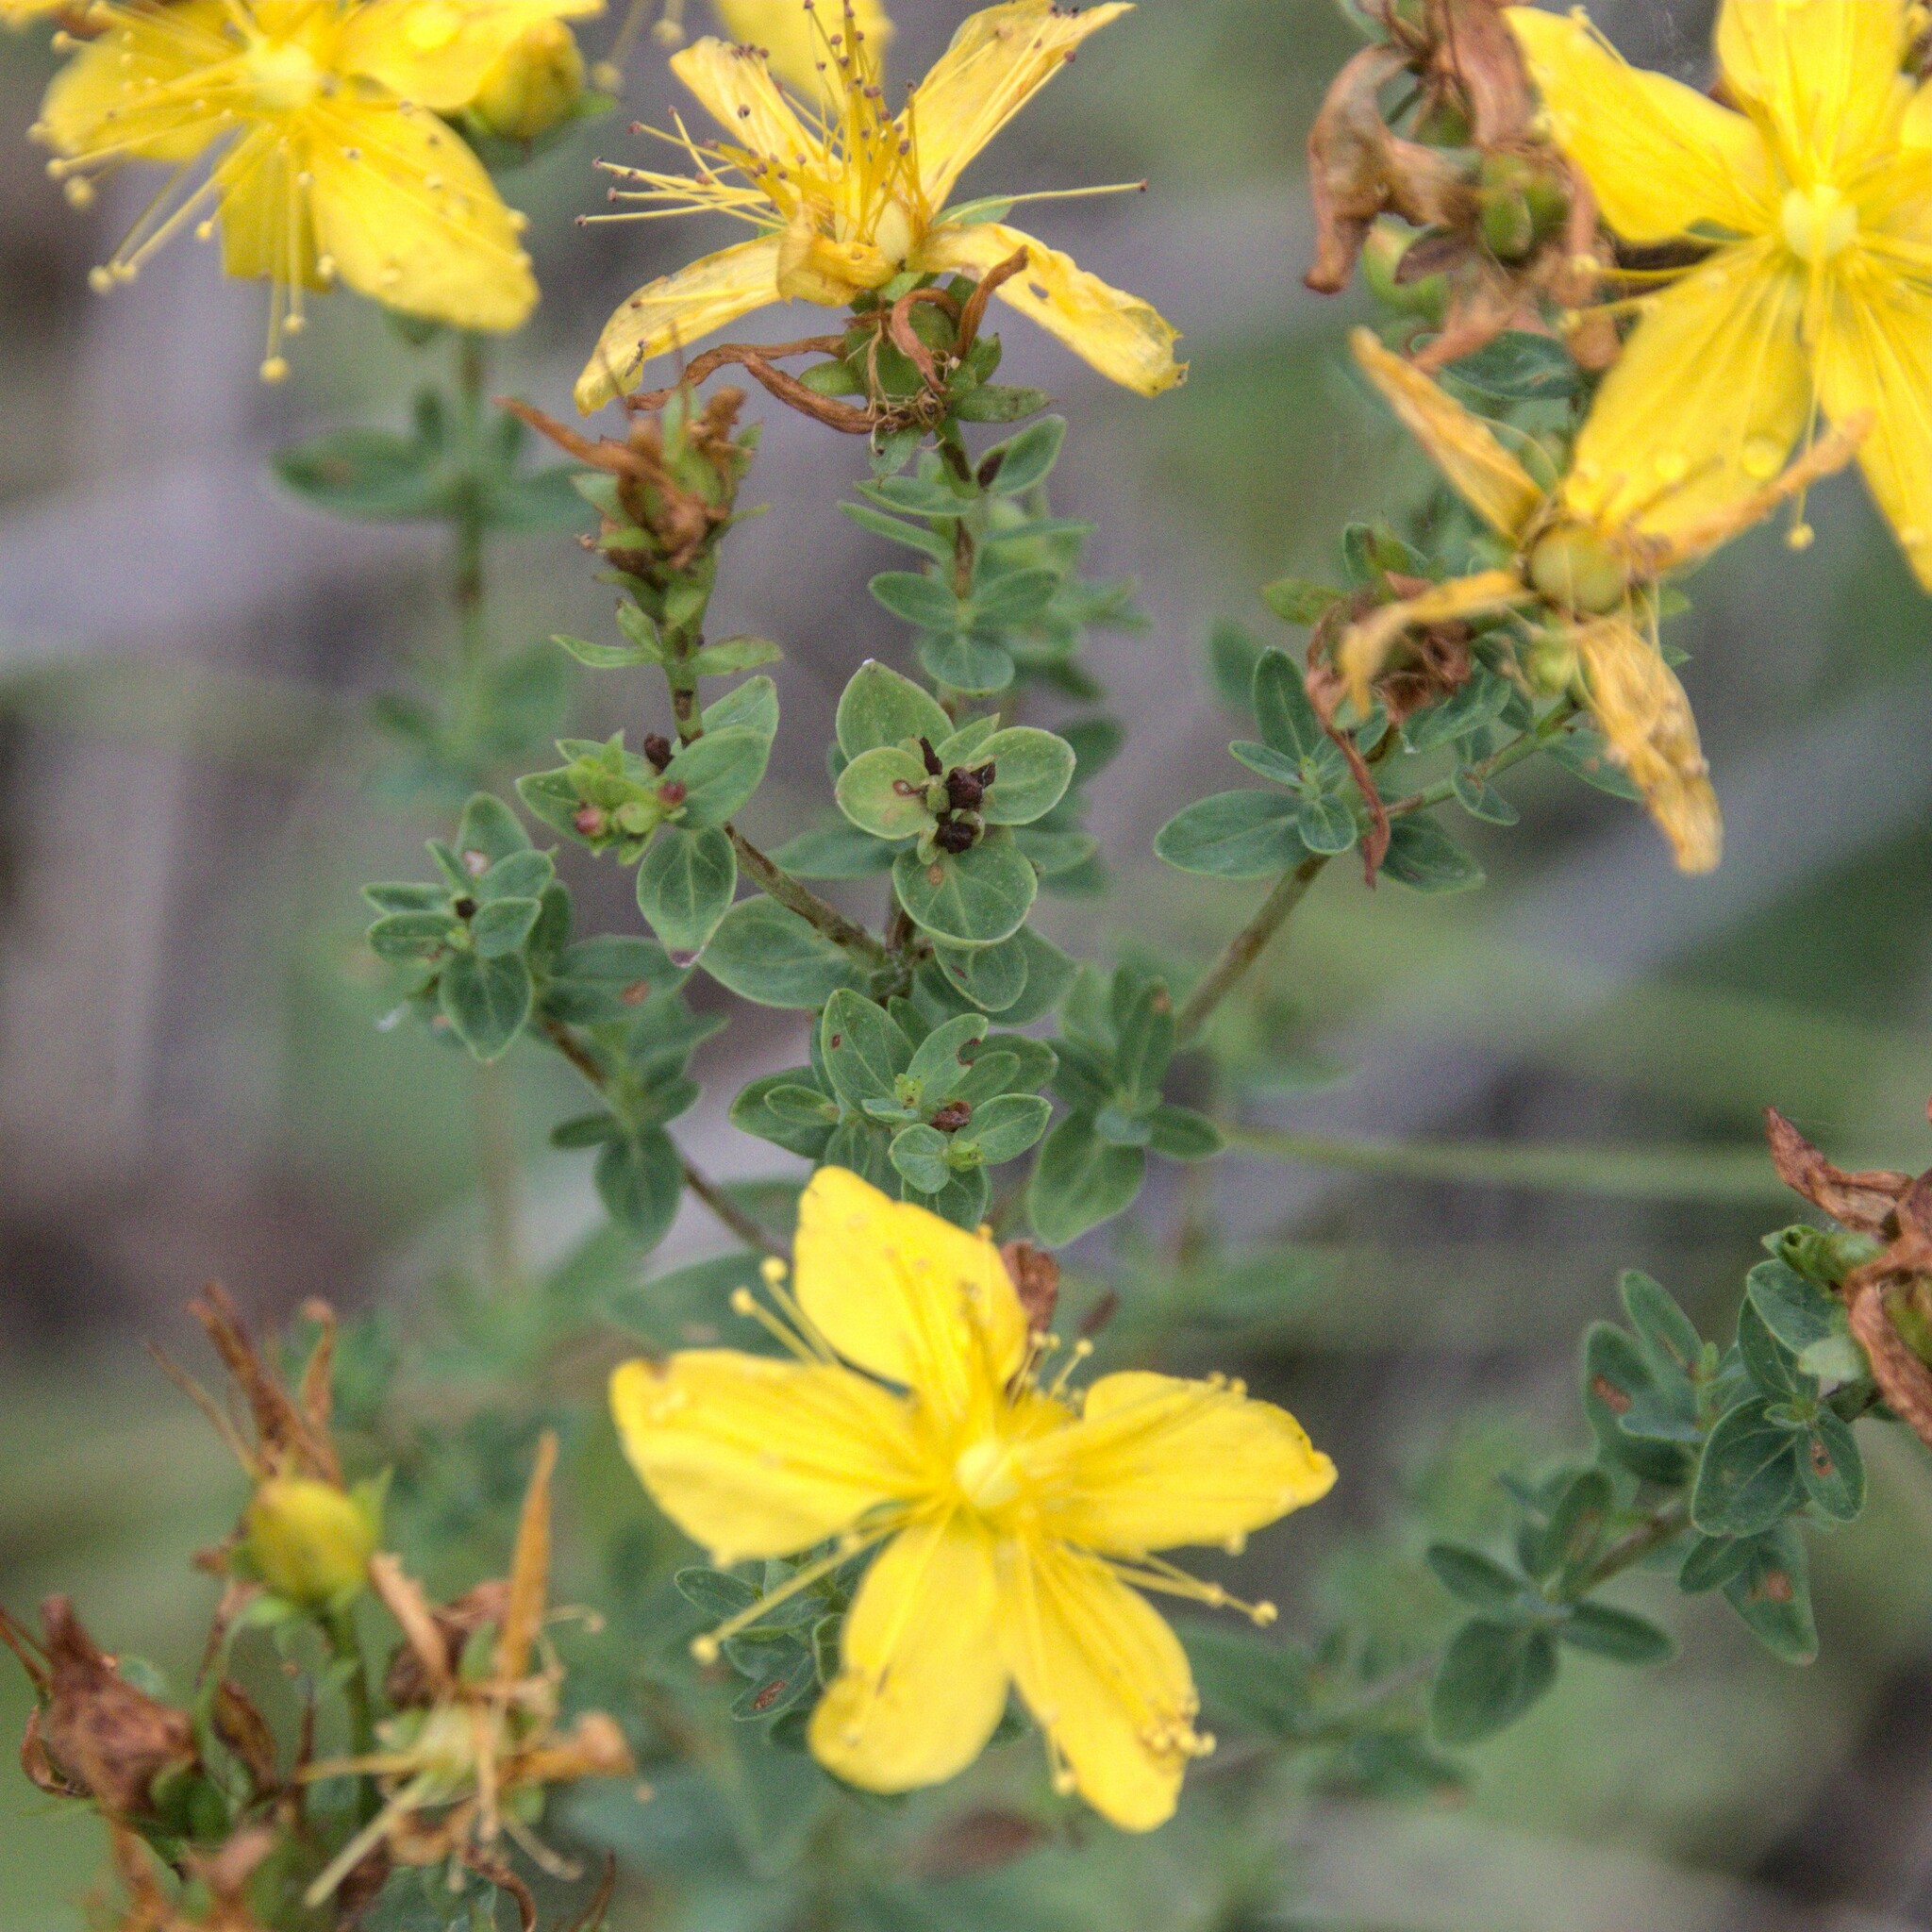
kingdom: Plantae
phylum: Tracheophyta
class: Magnoliopsida
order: Malpighiales
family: Hypericaceae
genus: Hypericum
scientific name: Hypericum perforatum
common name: Common st. johnswort
